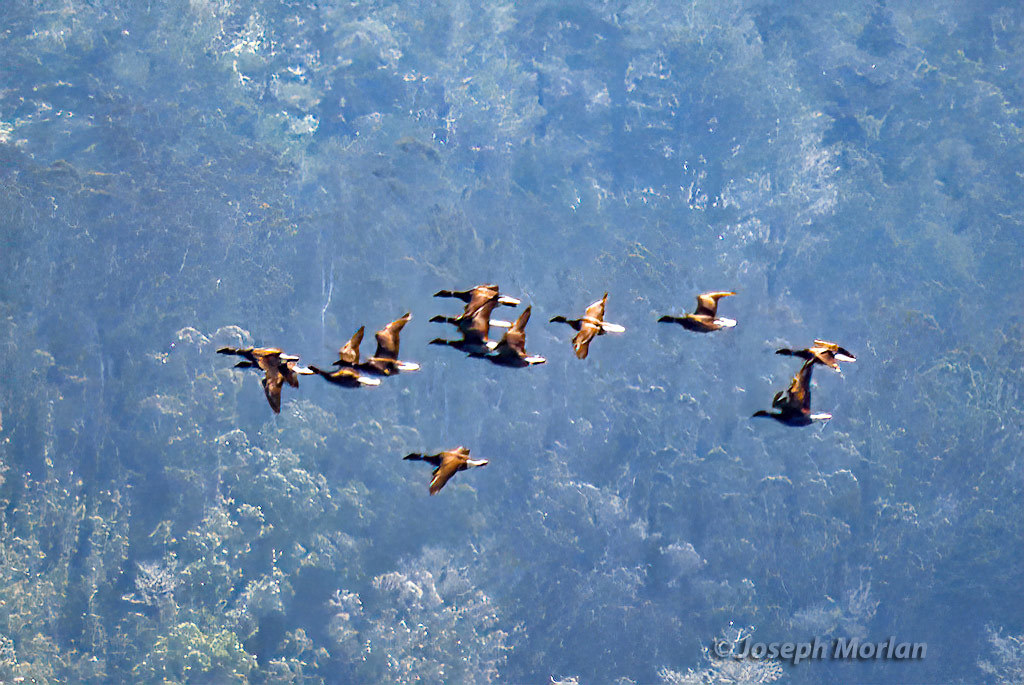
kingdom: Animalia
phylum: Chordata
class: Aves
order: Anseriformes
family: Anatidae
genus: Branta
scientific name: Branta bernicla
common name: Brant goose
